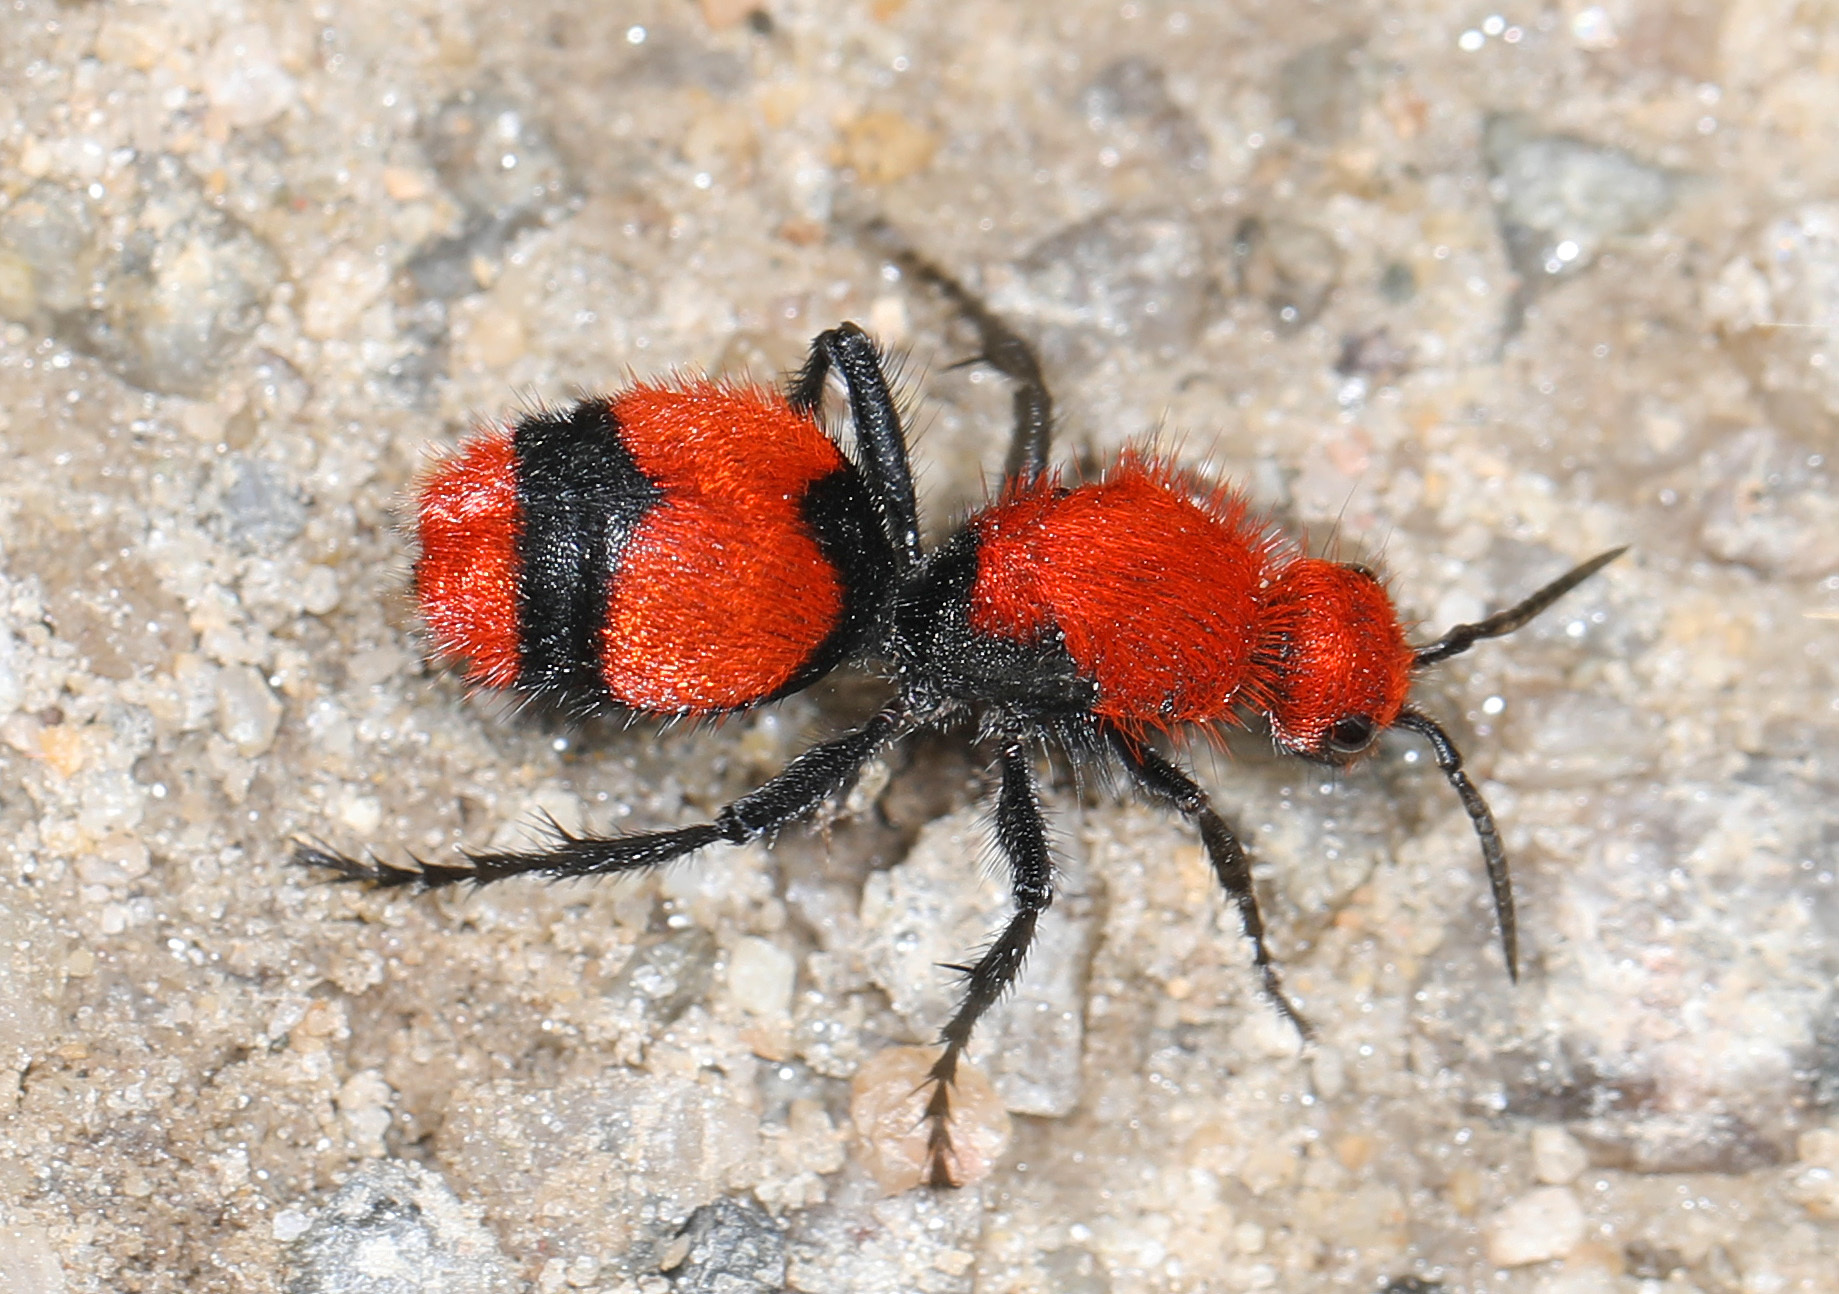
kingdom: Animalia
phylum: Arthropoda
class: Insecta
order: Hymenoptera
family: Mutillidae
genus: Dasymutilla
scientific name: Dasymutilla occidentalis
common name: Common eastern velvet ant
